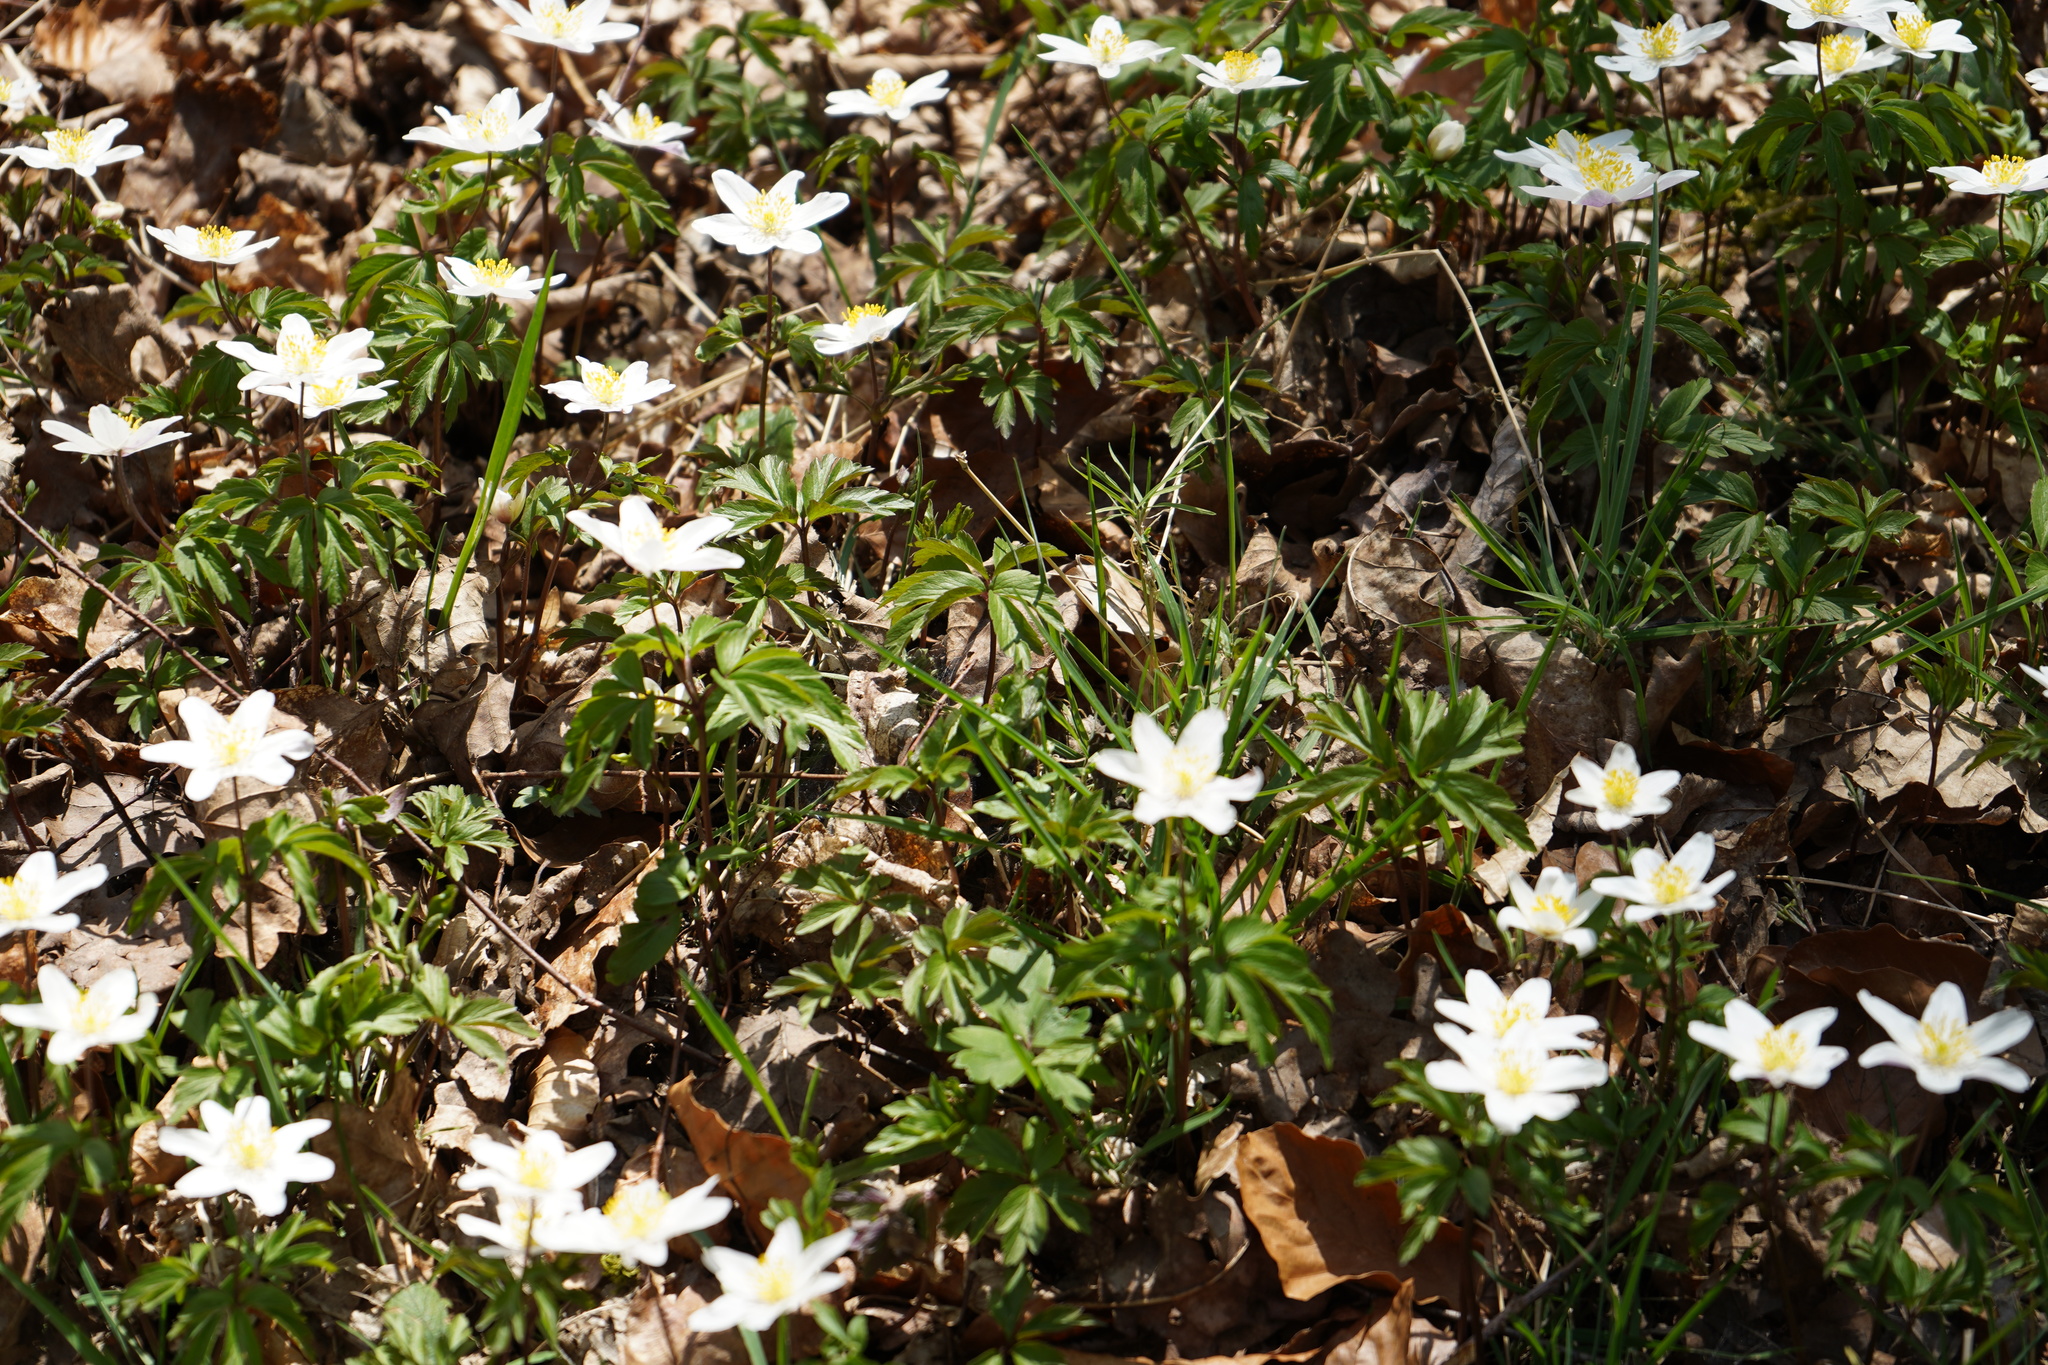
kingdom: Plantae
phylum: Tracheophyta
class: Magnoliopsida
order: Ranunculales
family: Ranunculaceae
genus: Anemone
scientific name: Anemone nemorosa
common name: Wood anemone
